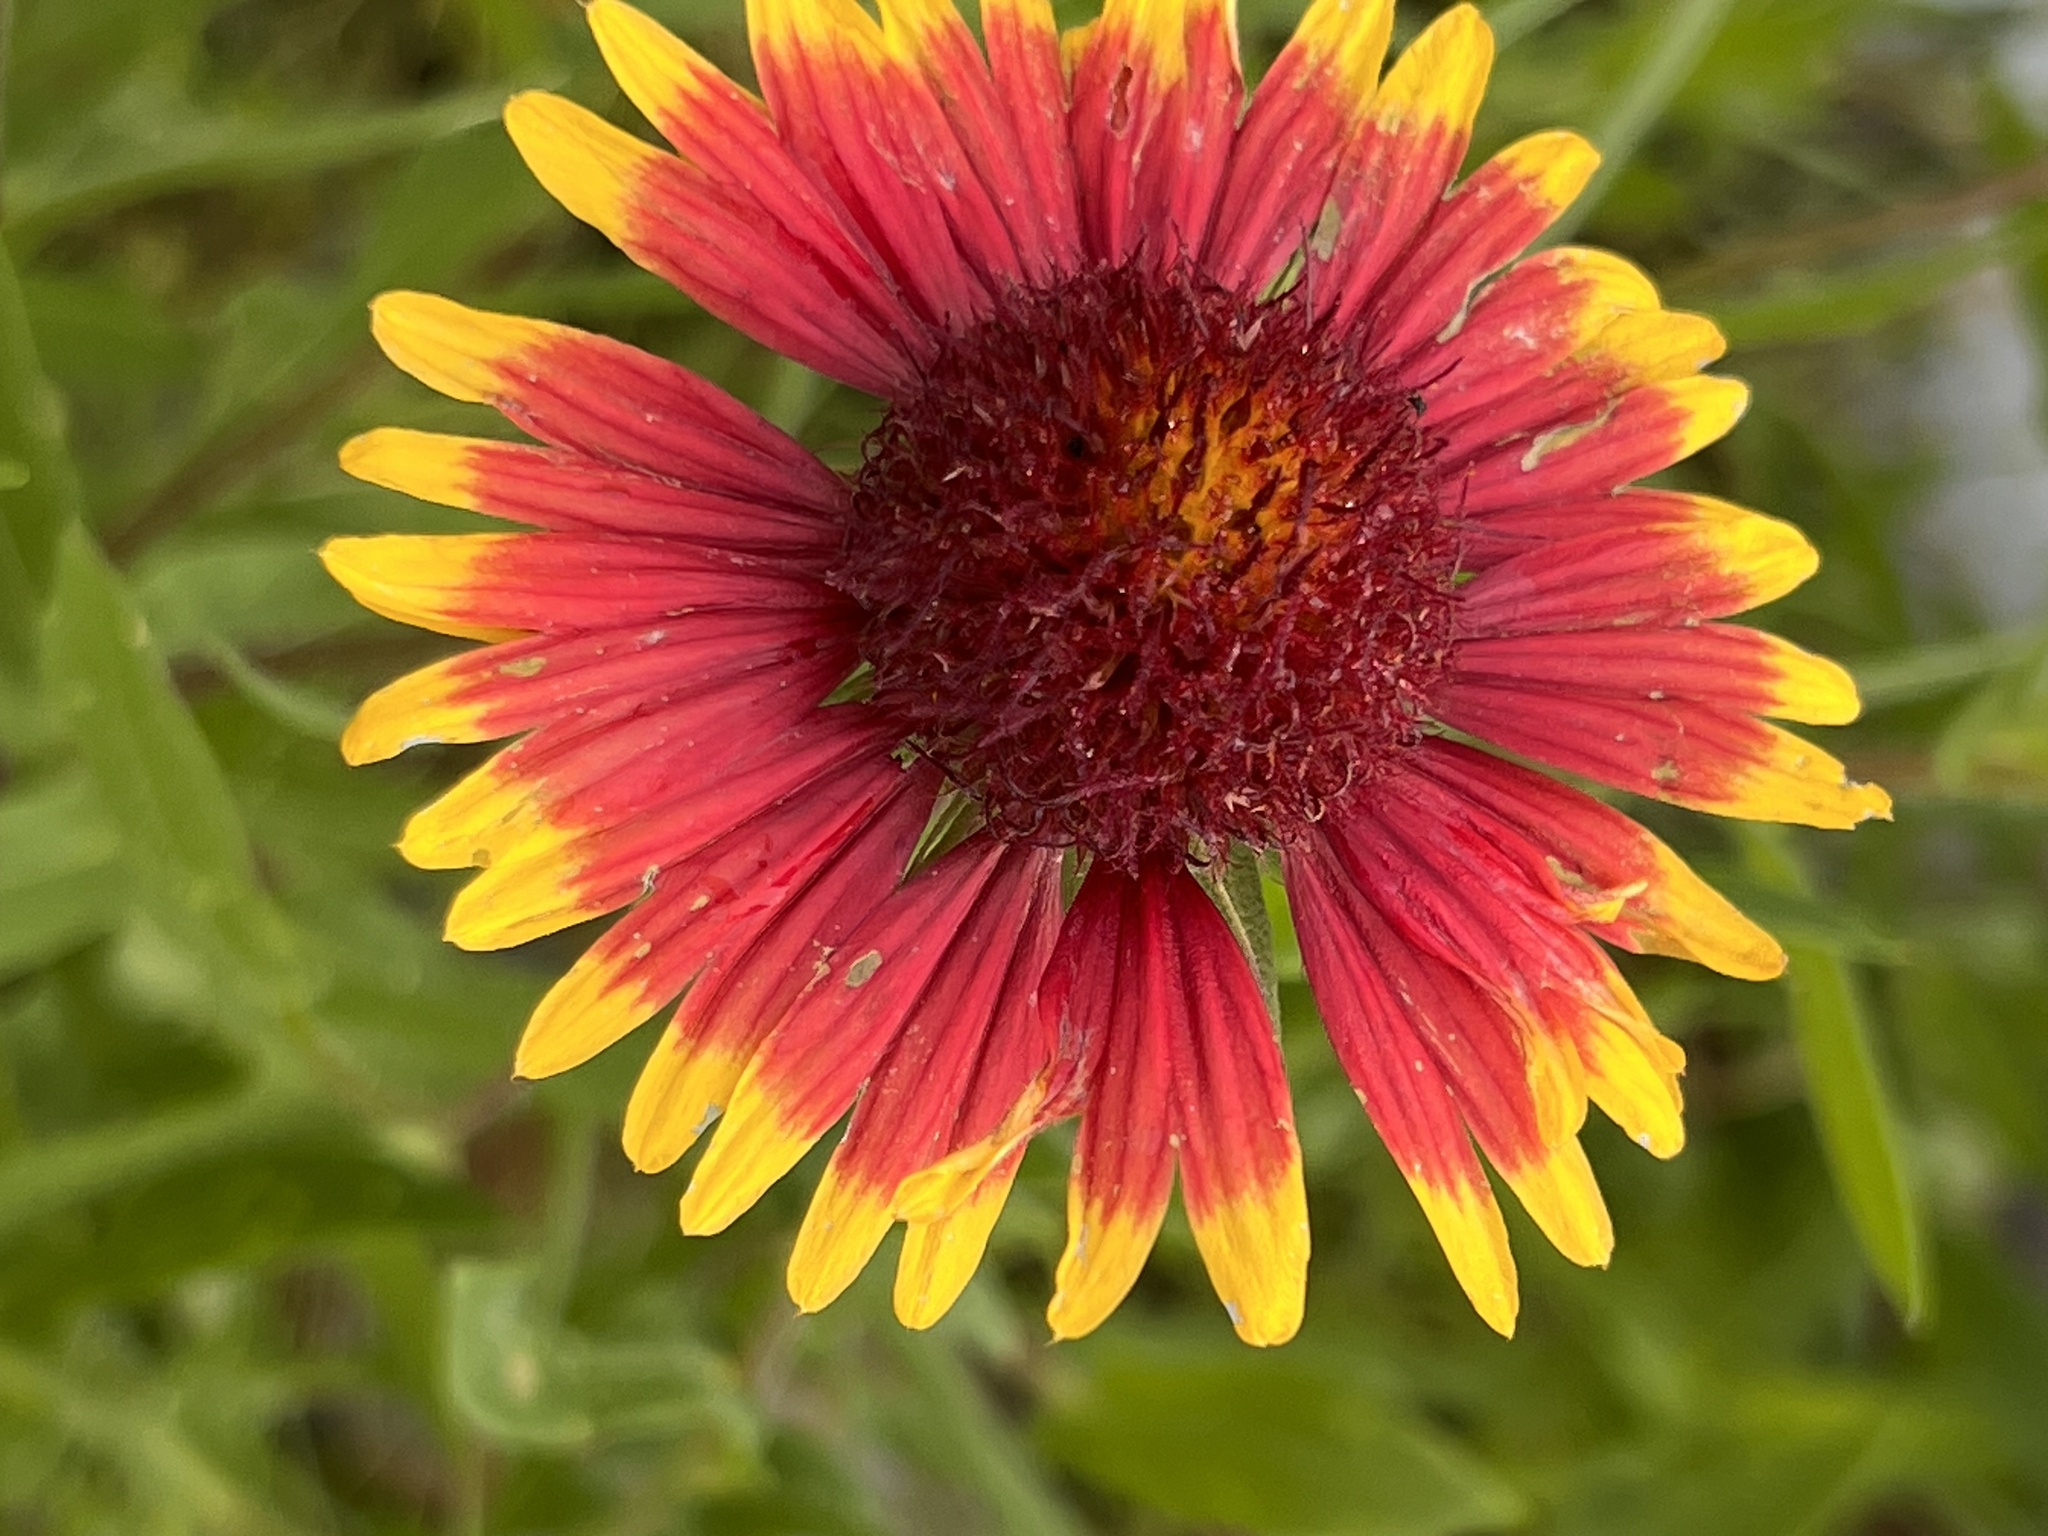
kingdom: Plantae
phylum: Tracheophyta
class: Magnoliopsida
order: Asterales
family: Asteraceae
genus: Gaillardia
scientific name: Gaillardia pulchella
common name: Firewheel
